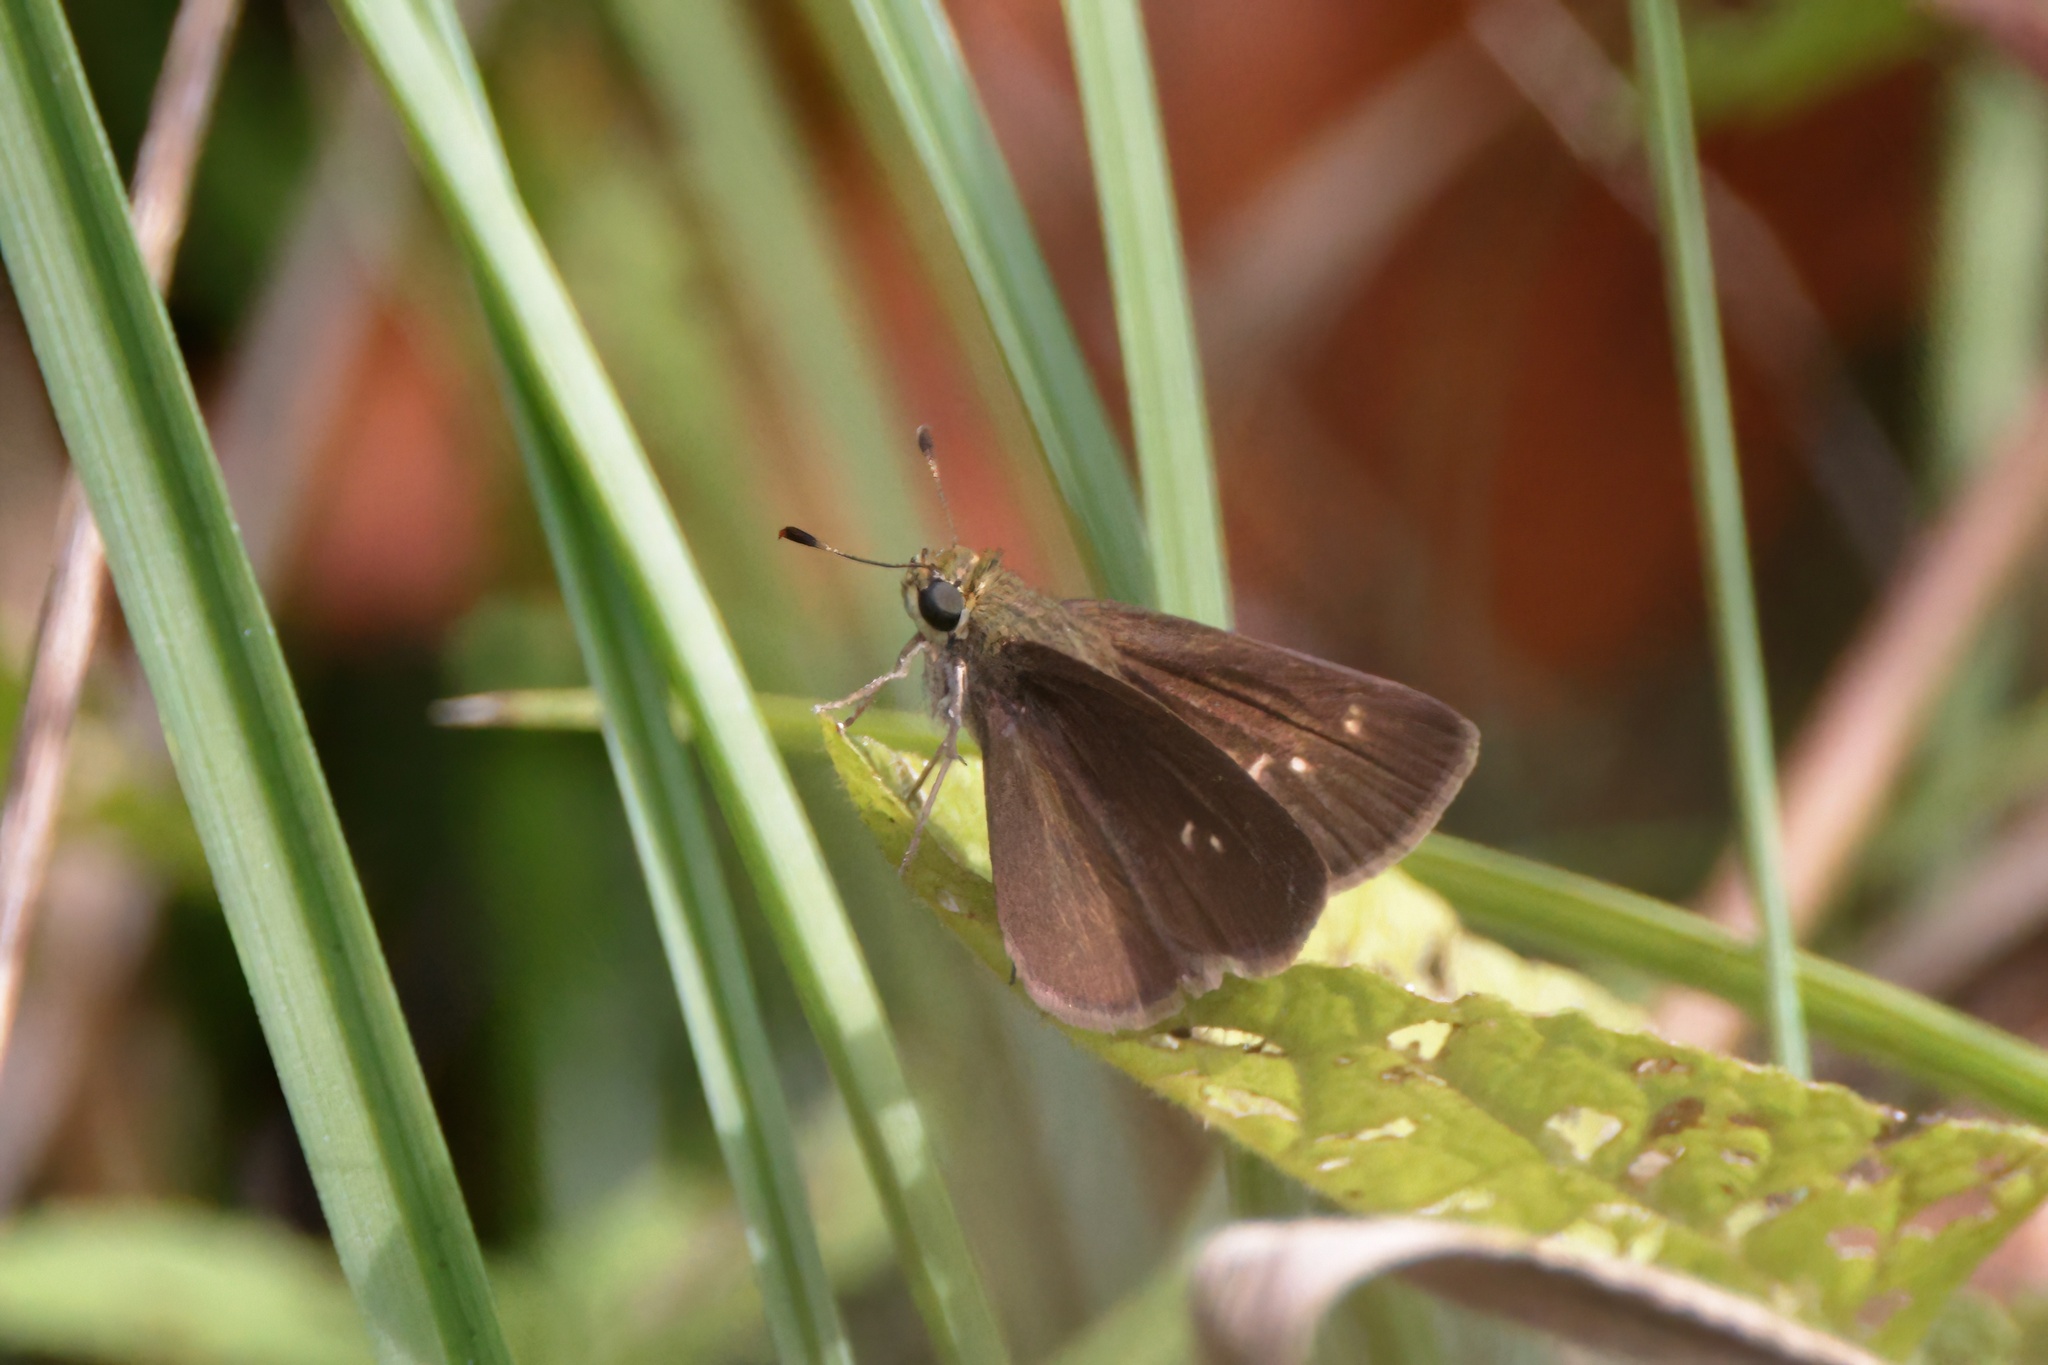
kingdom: Animalia
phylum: Arthropoda
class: Insecta
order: Lepidoptera
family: Hesperiidae
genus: Euphyes
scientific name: Euphyes vestris
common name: Dun skipper
